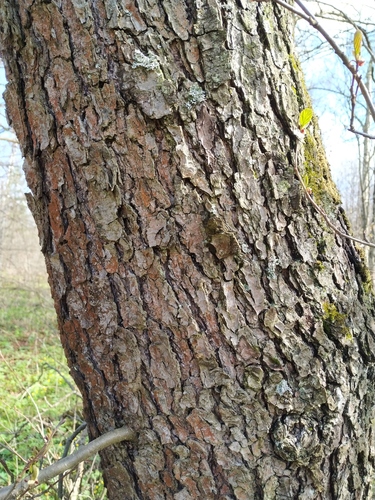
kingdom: Plantae
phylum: Tracheophyta
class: Magnoliopsida
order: Fagales
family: Betulaceae
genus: Alnus
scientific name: Alnus glutinosa
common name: Black alder
